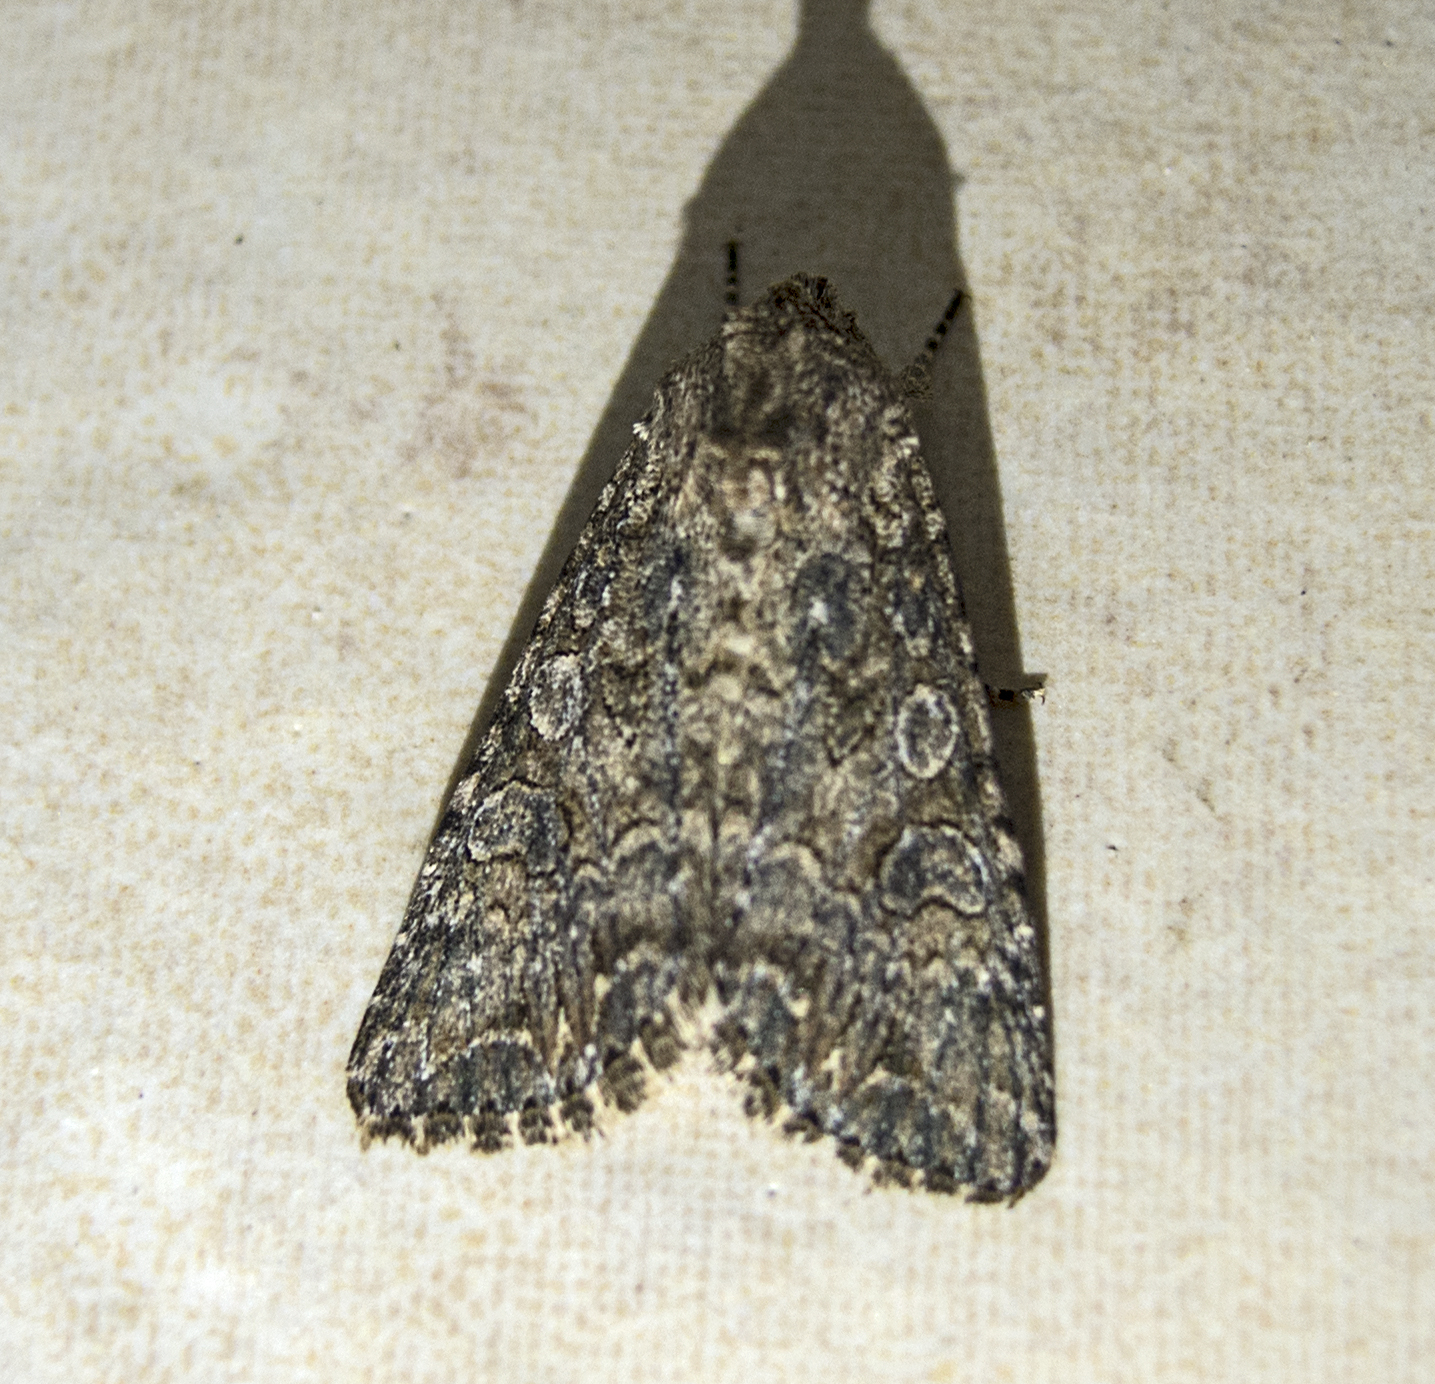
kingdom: Animalia
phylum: Arthropoda
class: Insecta
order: Lepidoptera
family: Noctuidae
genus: Anarta
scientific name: Anarta trifolii
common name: Clover cutworm moth
